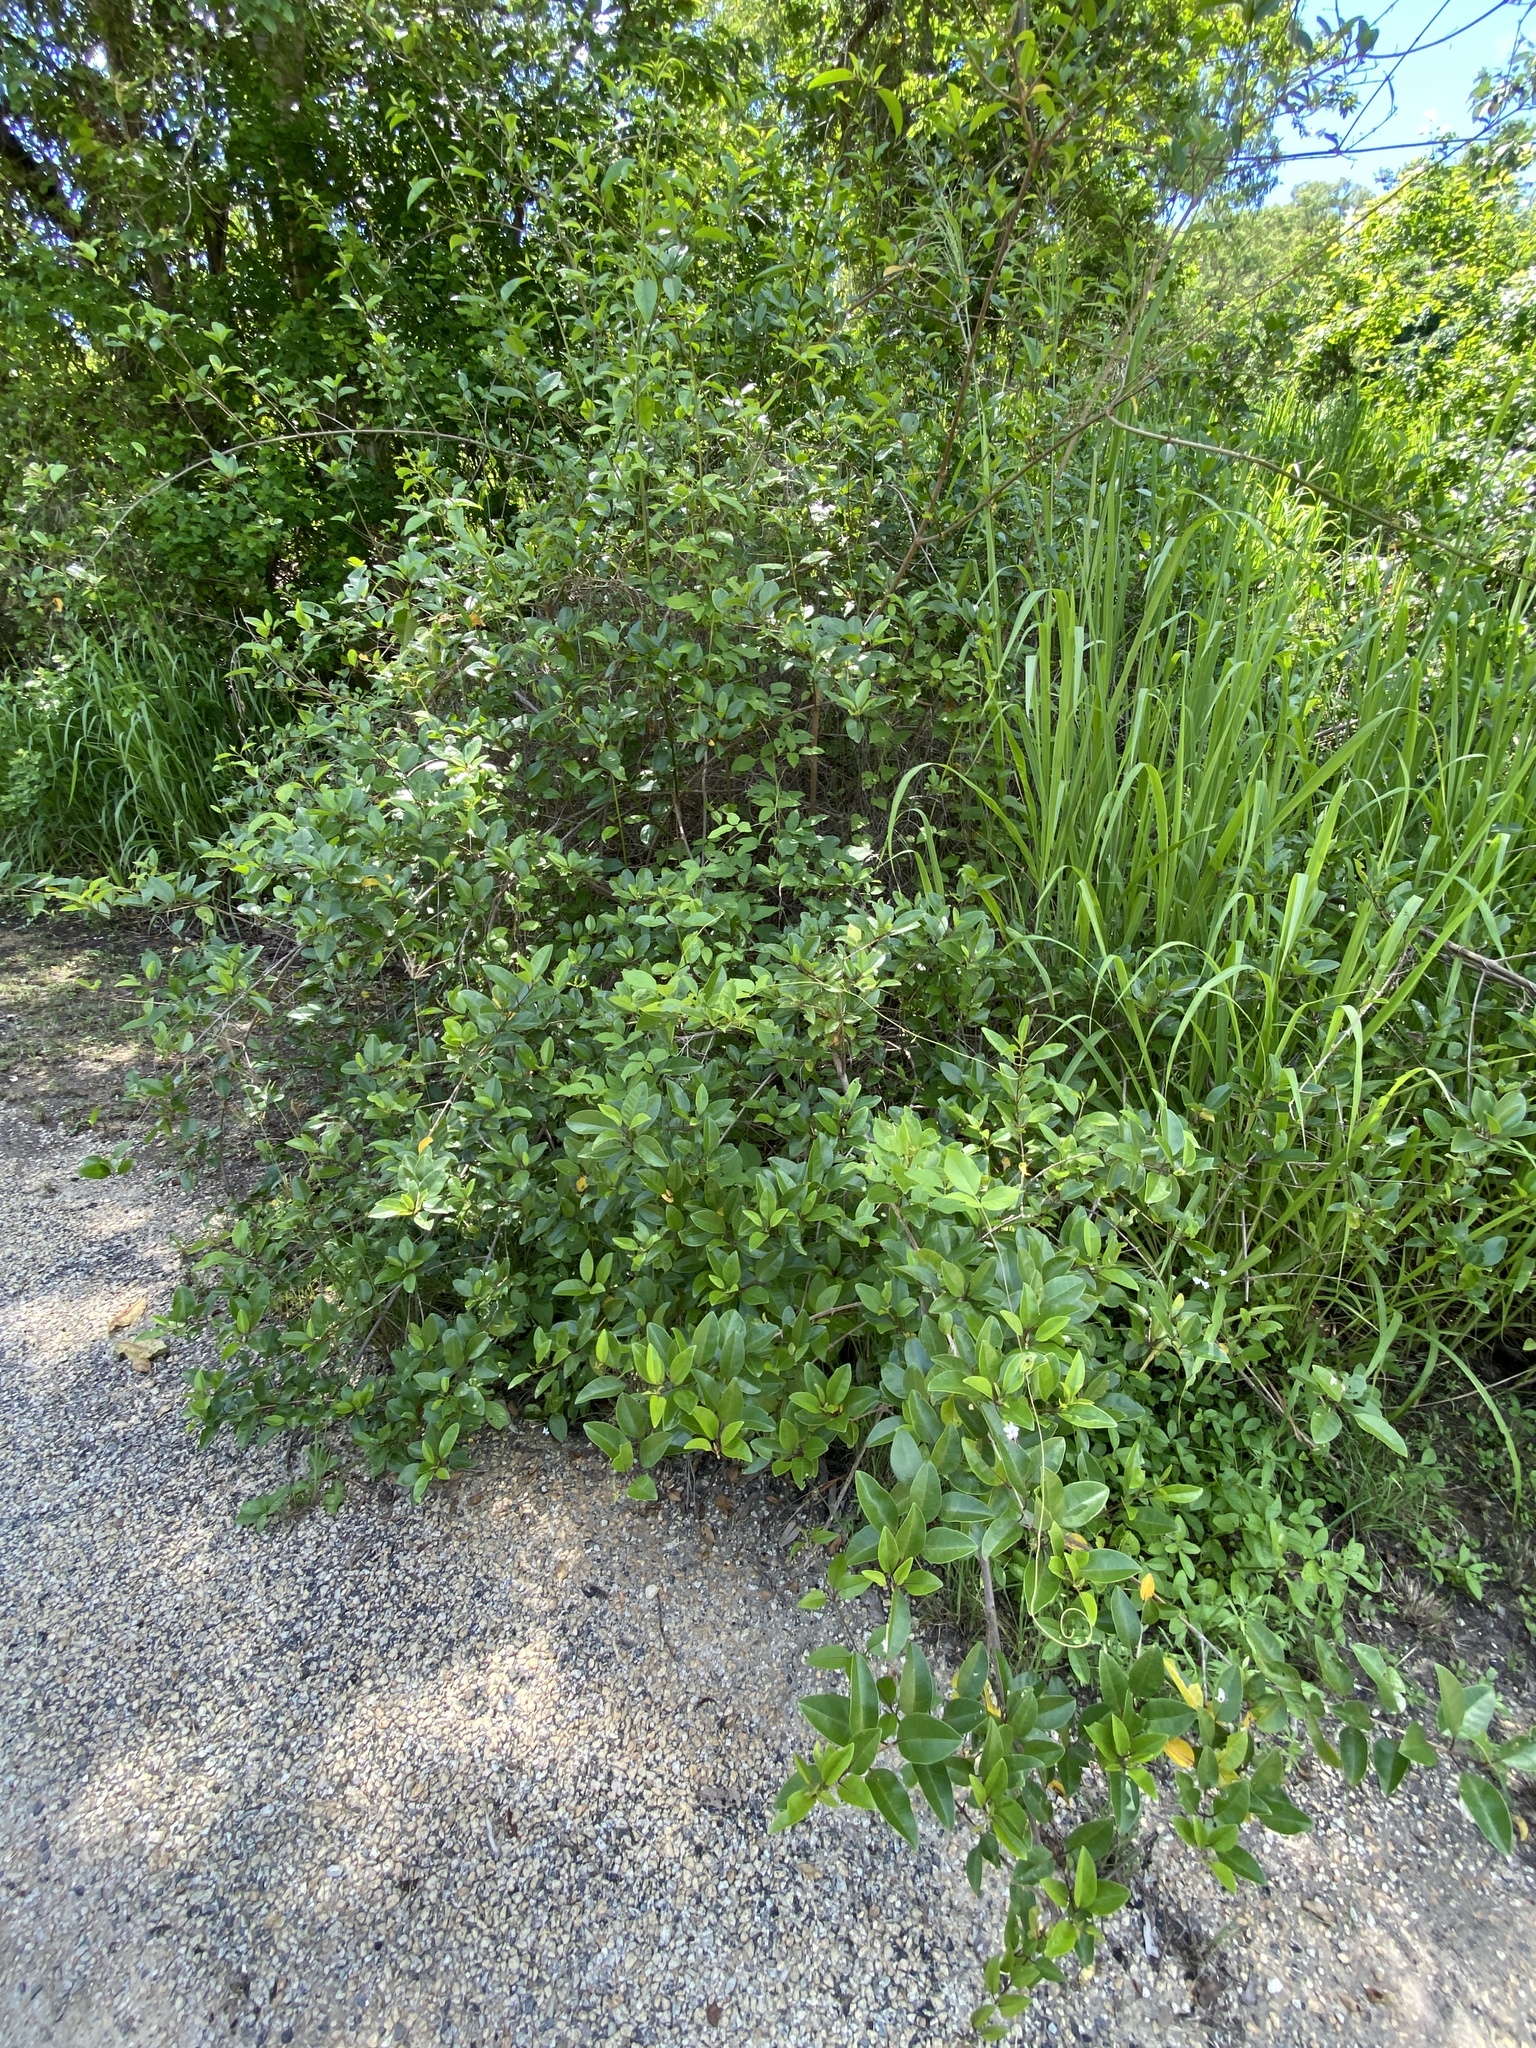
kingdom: Plantae
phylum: Tracheophyta
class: Magnoliopsida
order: Lamiales
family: Lamiaceae
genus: Volkameria
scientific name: Volkameria inermis
